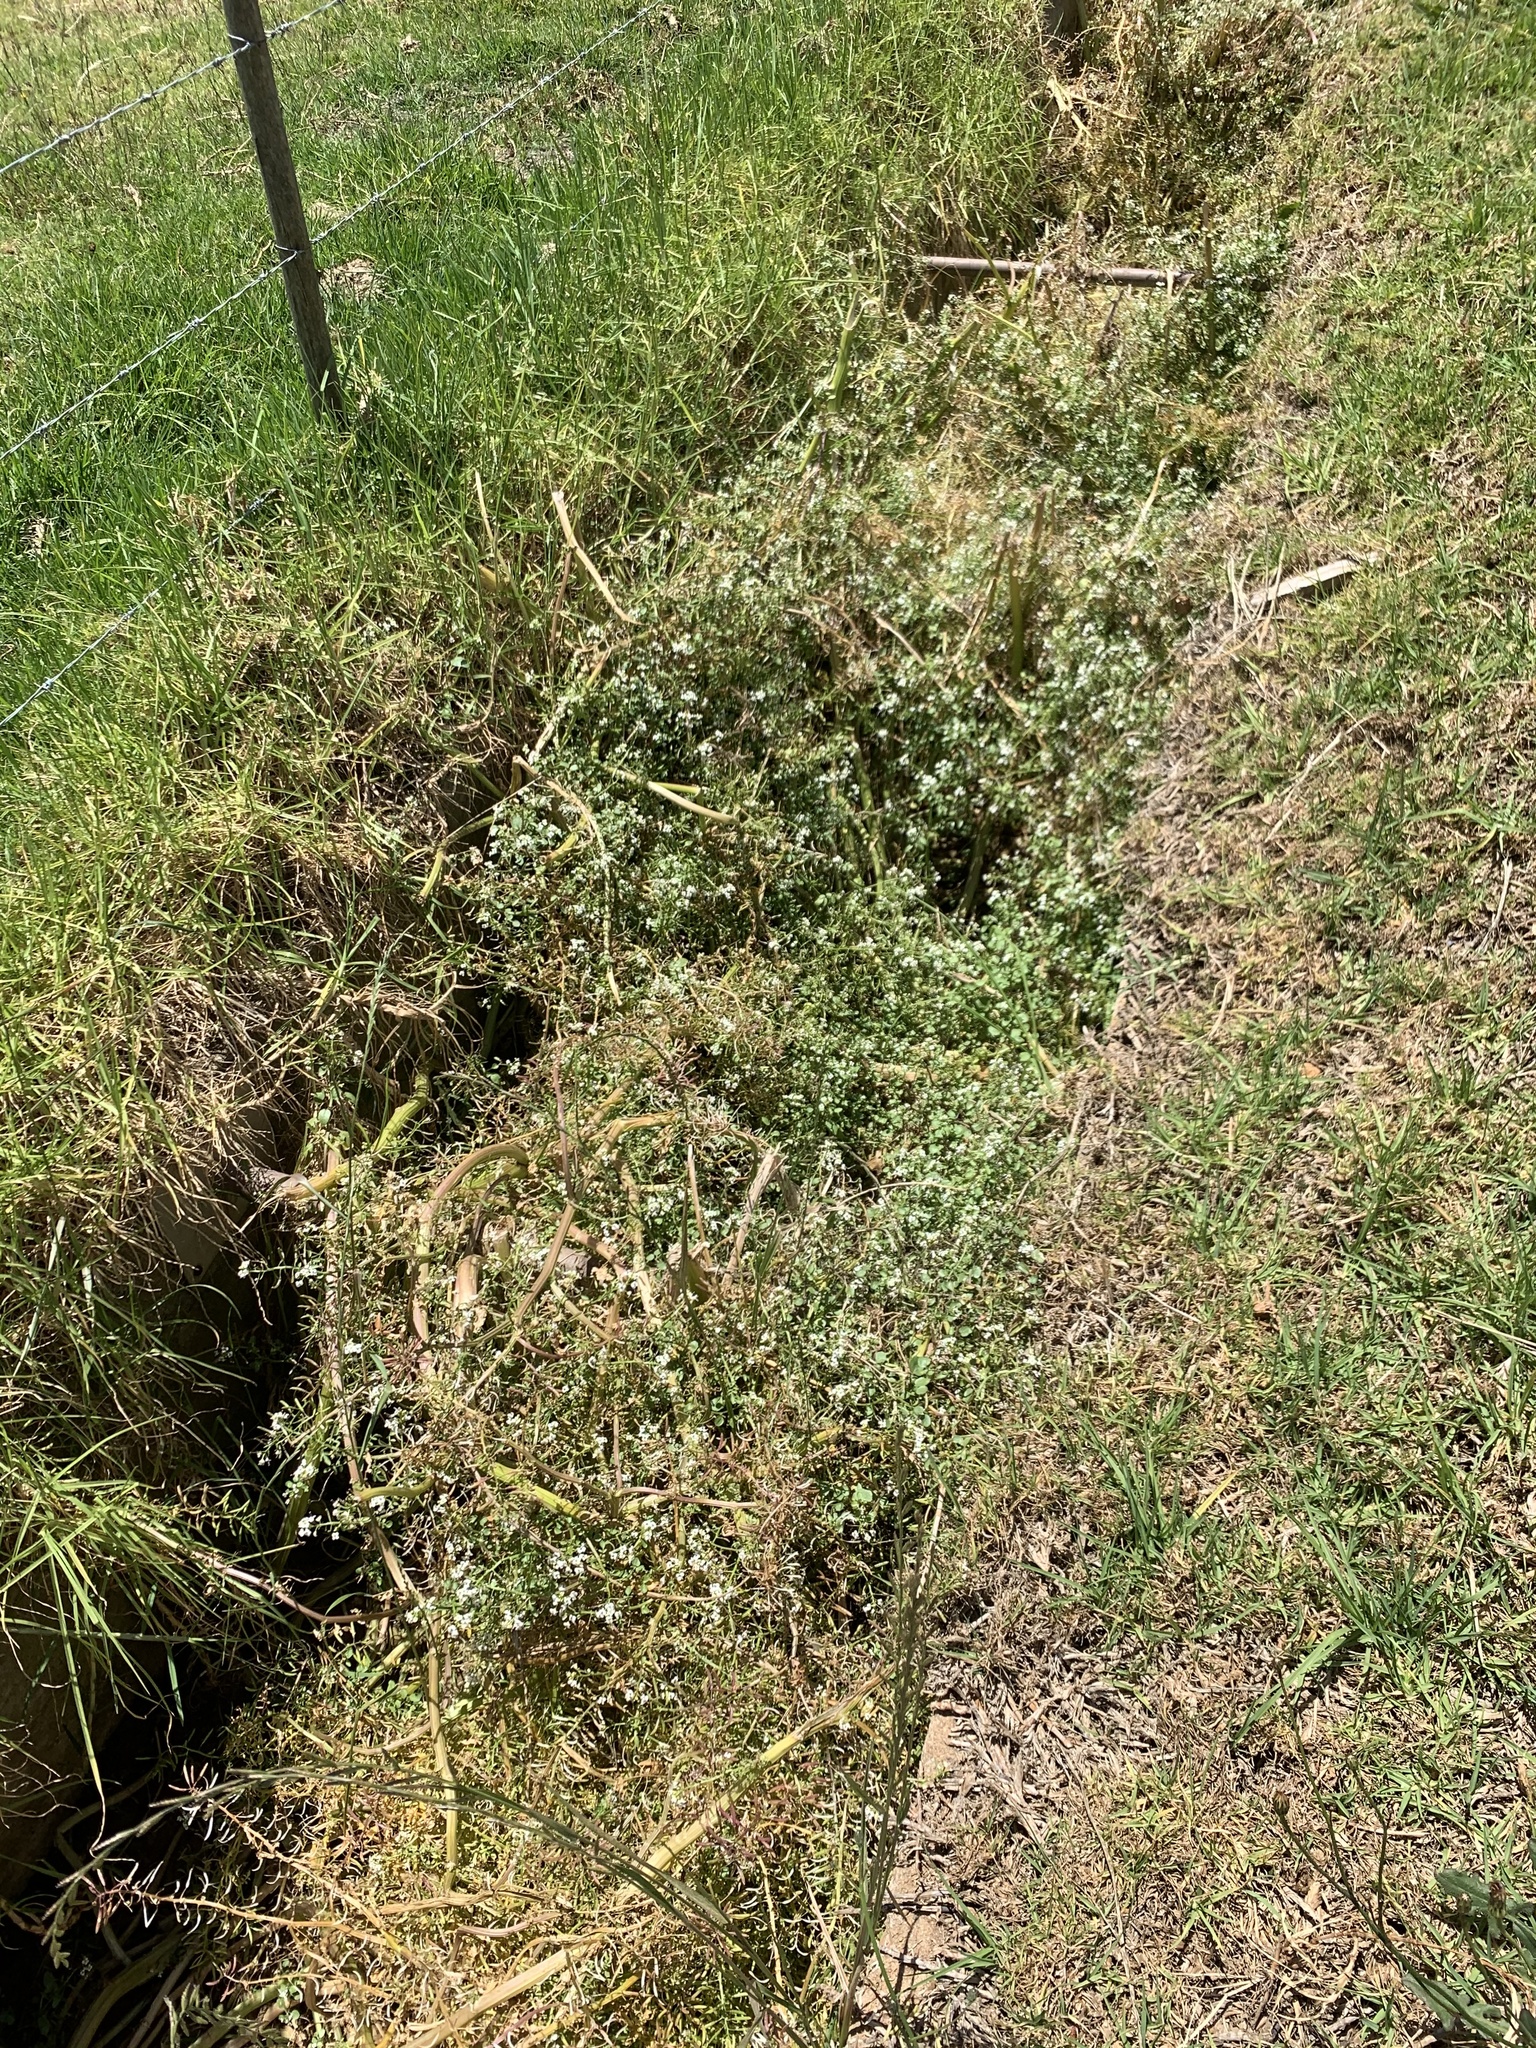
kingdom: Plantae
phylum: Tracheophyta
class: Magnoliopsida
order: Brassicales
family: Brassicaceae
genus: Nasturtium
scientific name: Nasturtium officinale
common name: Watercress
